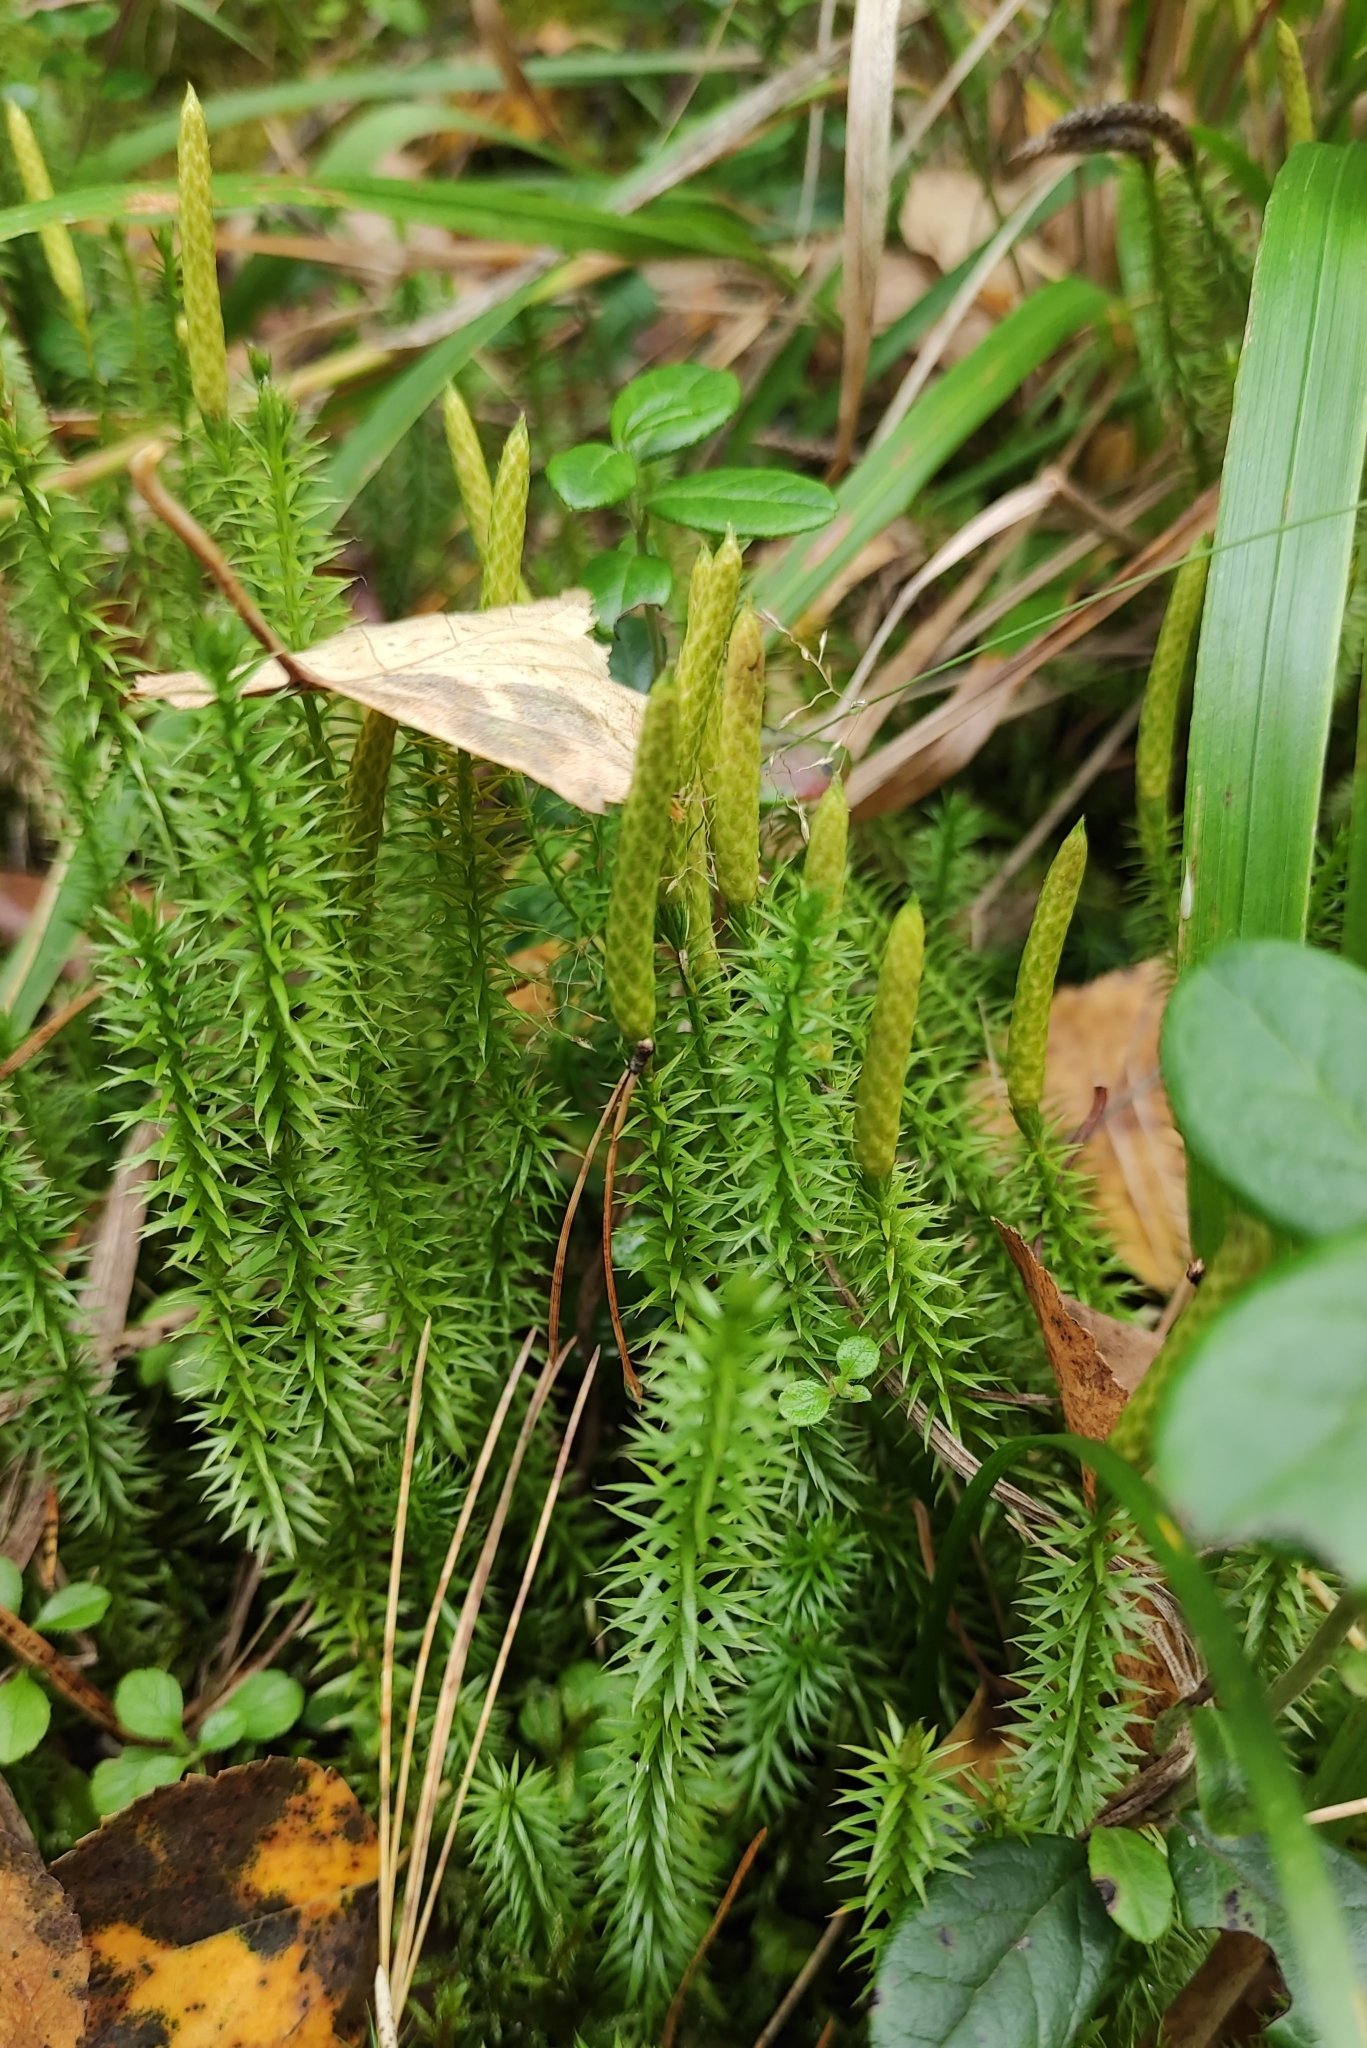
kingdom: Plantae
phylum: Tracheophyta
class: Lycopodiopsida
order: Lycopodiales
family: Lycopodiaceae
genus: Spinulum
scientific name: Spinulum annotinum
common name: Interrupted club-moss
